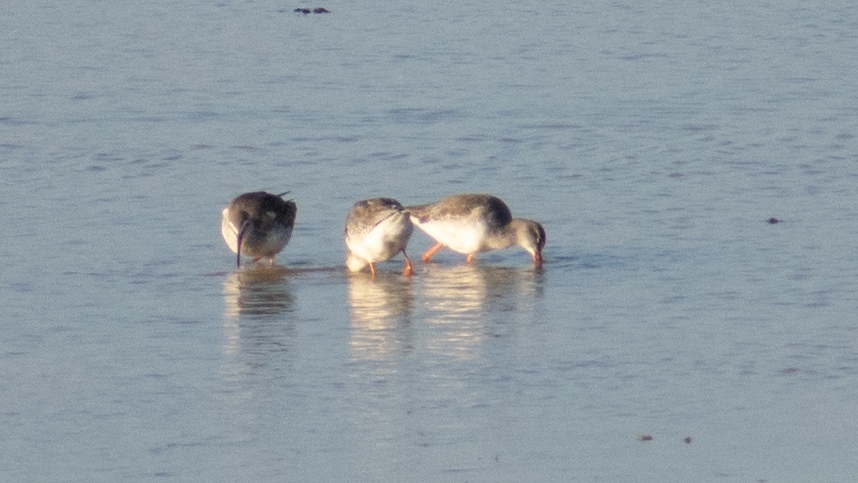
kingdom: Animalia
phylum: Chordata
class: Aves
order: Charadriiformes
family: Scolopacidae
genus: Tringa
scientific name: Tringa erythropus
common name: Spotted redshank
